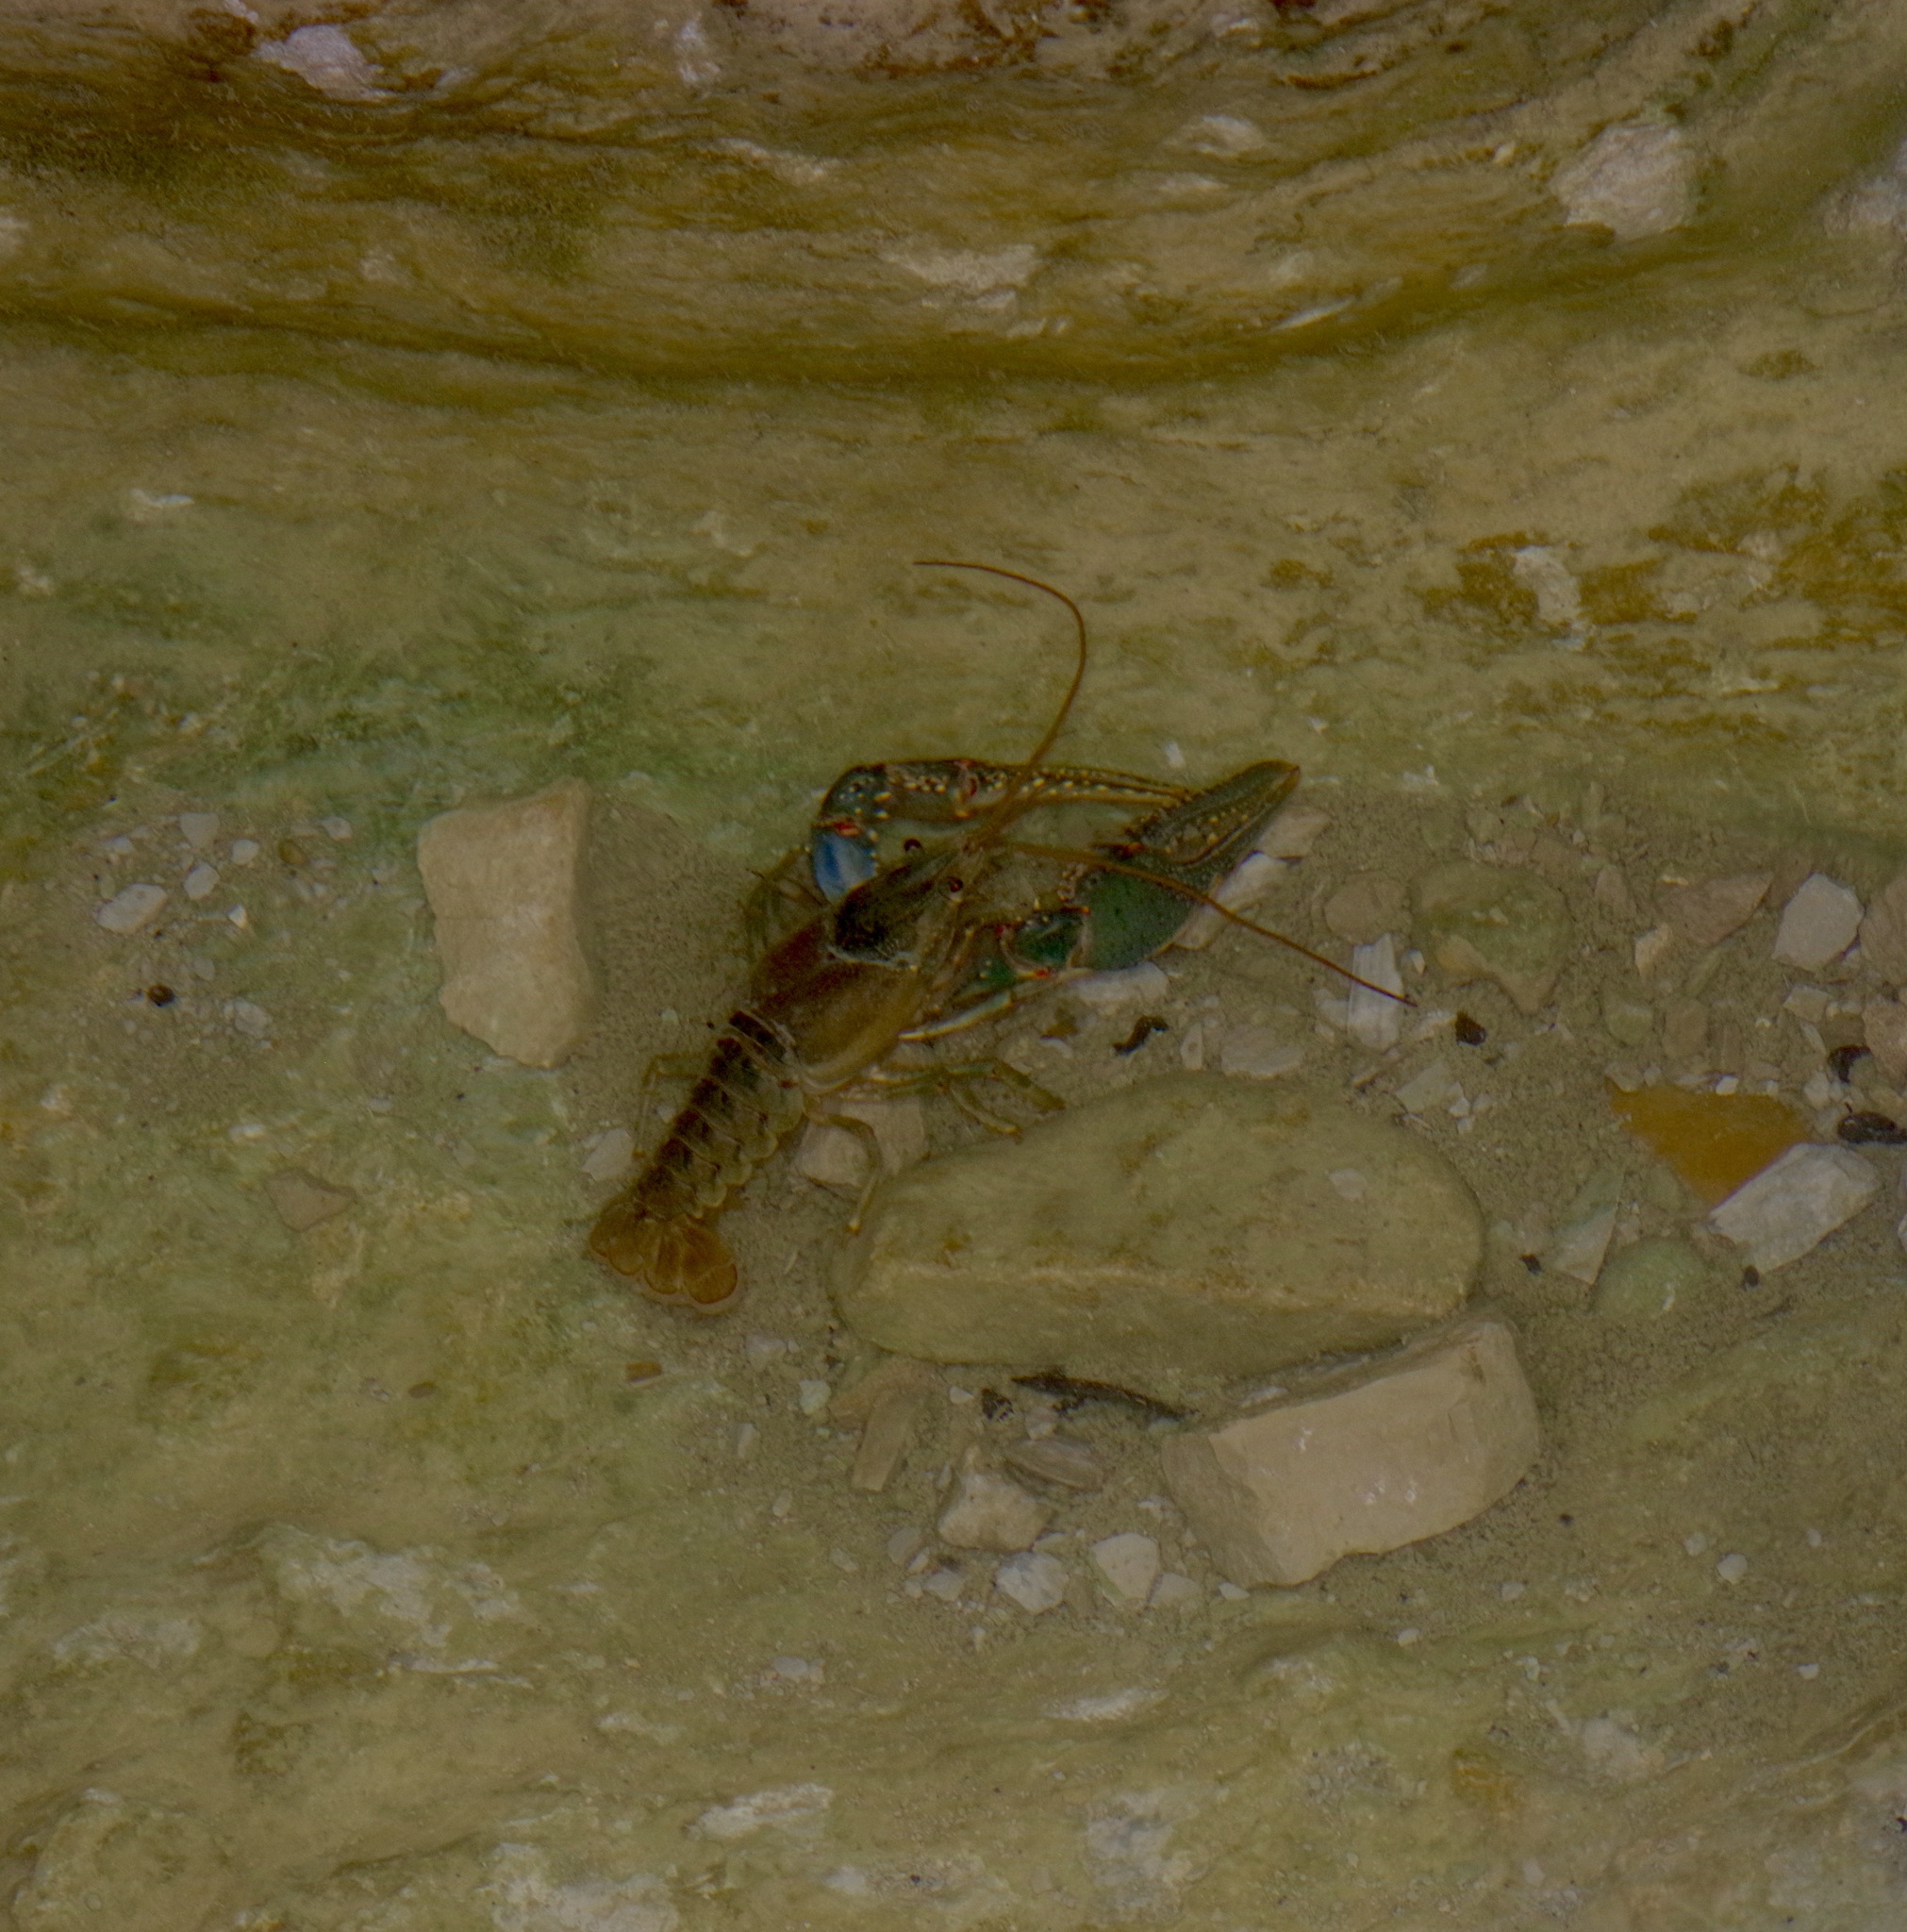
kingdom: Animalia
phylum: Arthropoda
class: Malacostraca
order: Decapoda
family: Cambaridae
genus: Faxonius
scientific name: Faxonius virilis
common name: Virile crayfish
